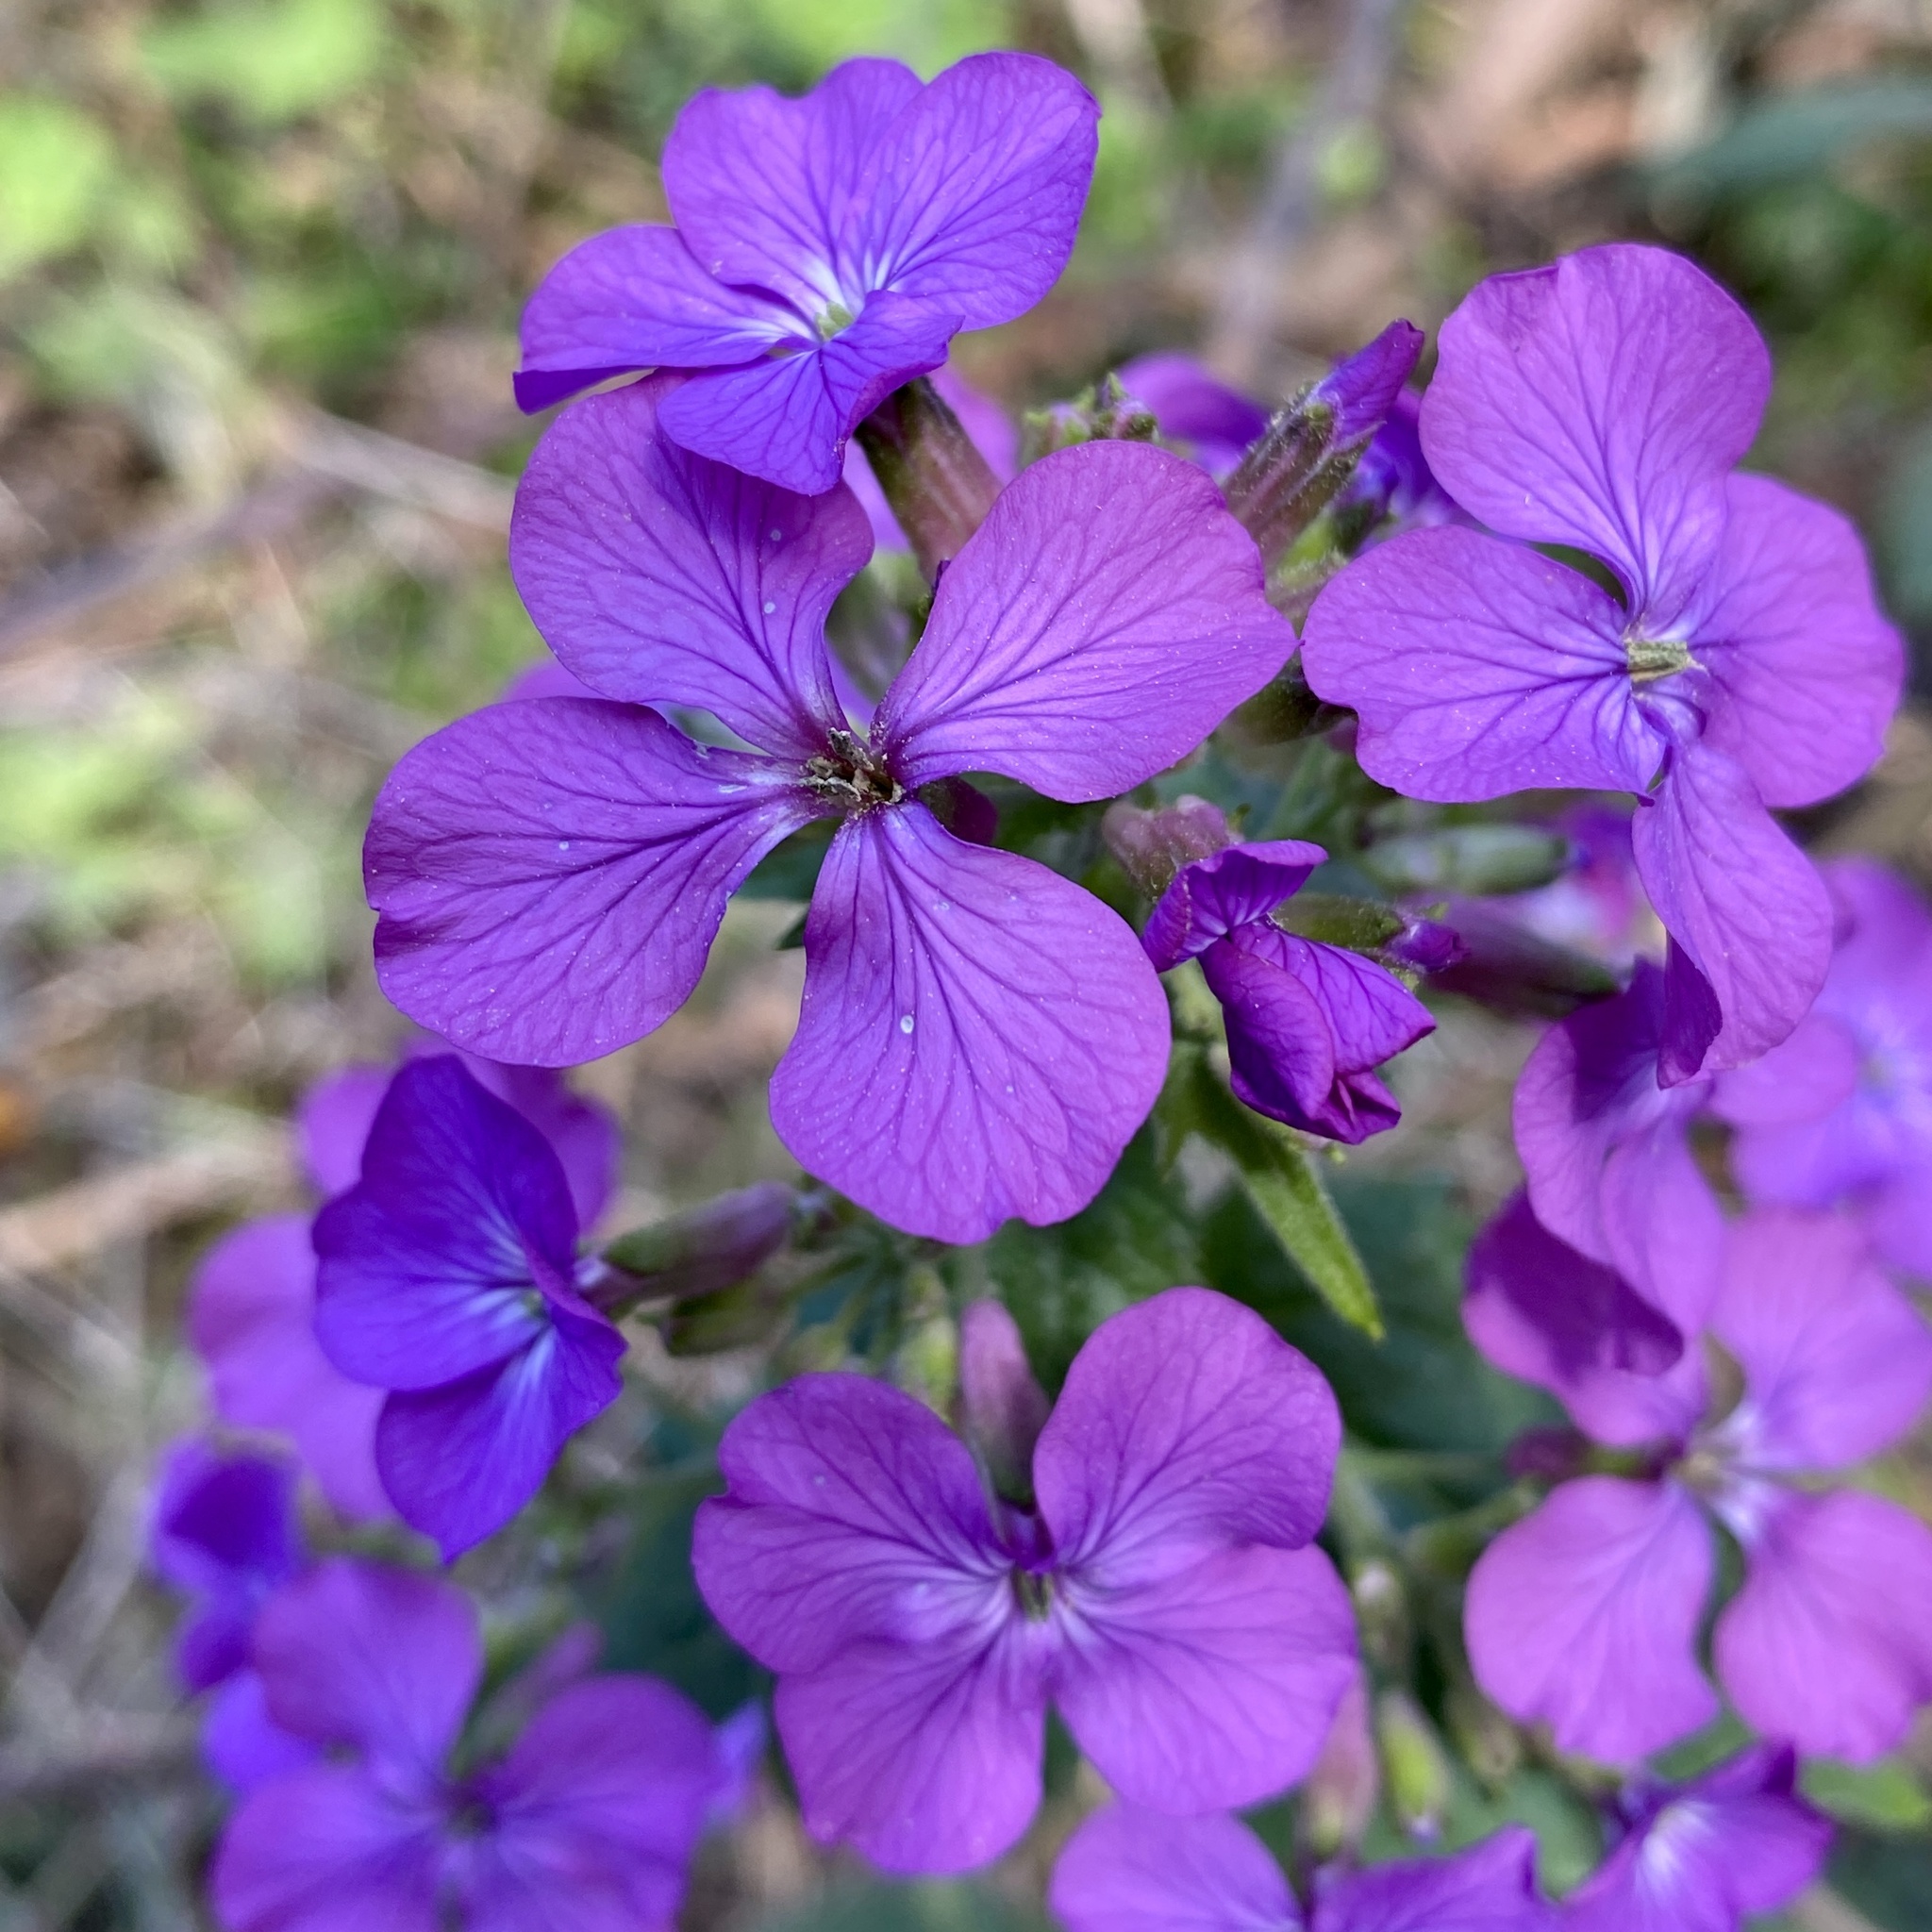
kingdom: Plantae
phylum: Tracheophyta
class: Magnoliopsida
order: Brassicales
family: Brassicaceae
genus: Lunaria
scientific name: Lunaria annua
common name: Honesty
